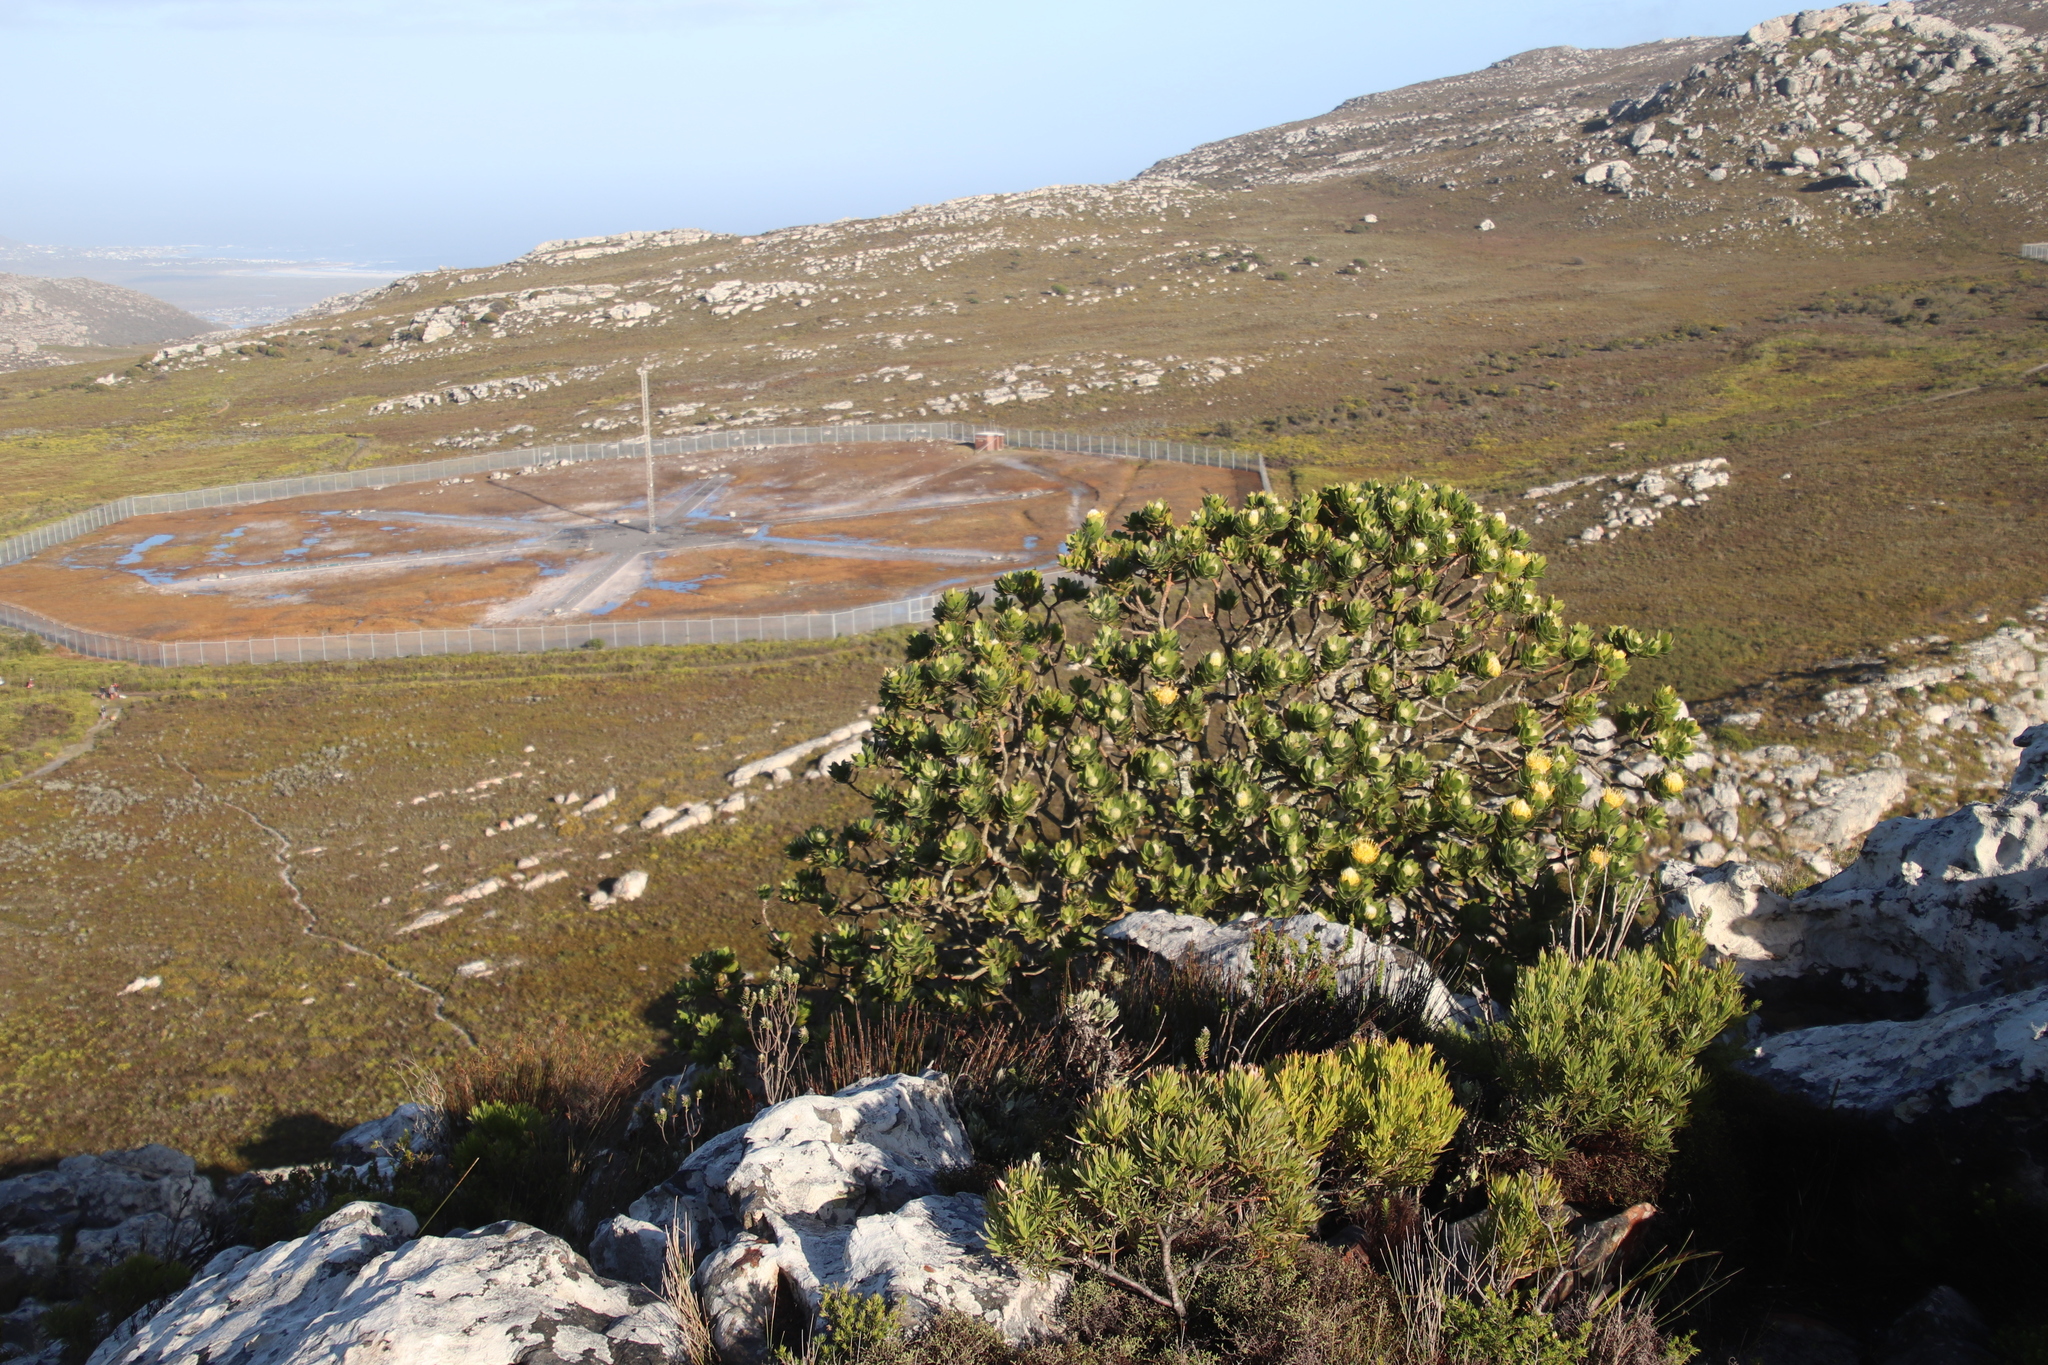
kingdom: Plantae
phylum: Tracheophyta
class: Magnoliopsida
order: Proteales
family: Proteaceae
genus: Leucospermum
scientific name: Leucospermum conocarpodendron
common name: Tree pincushion
